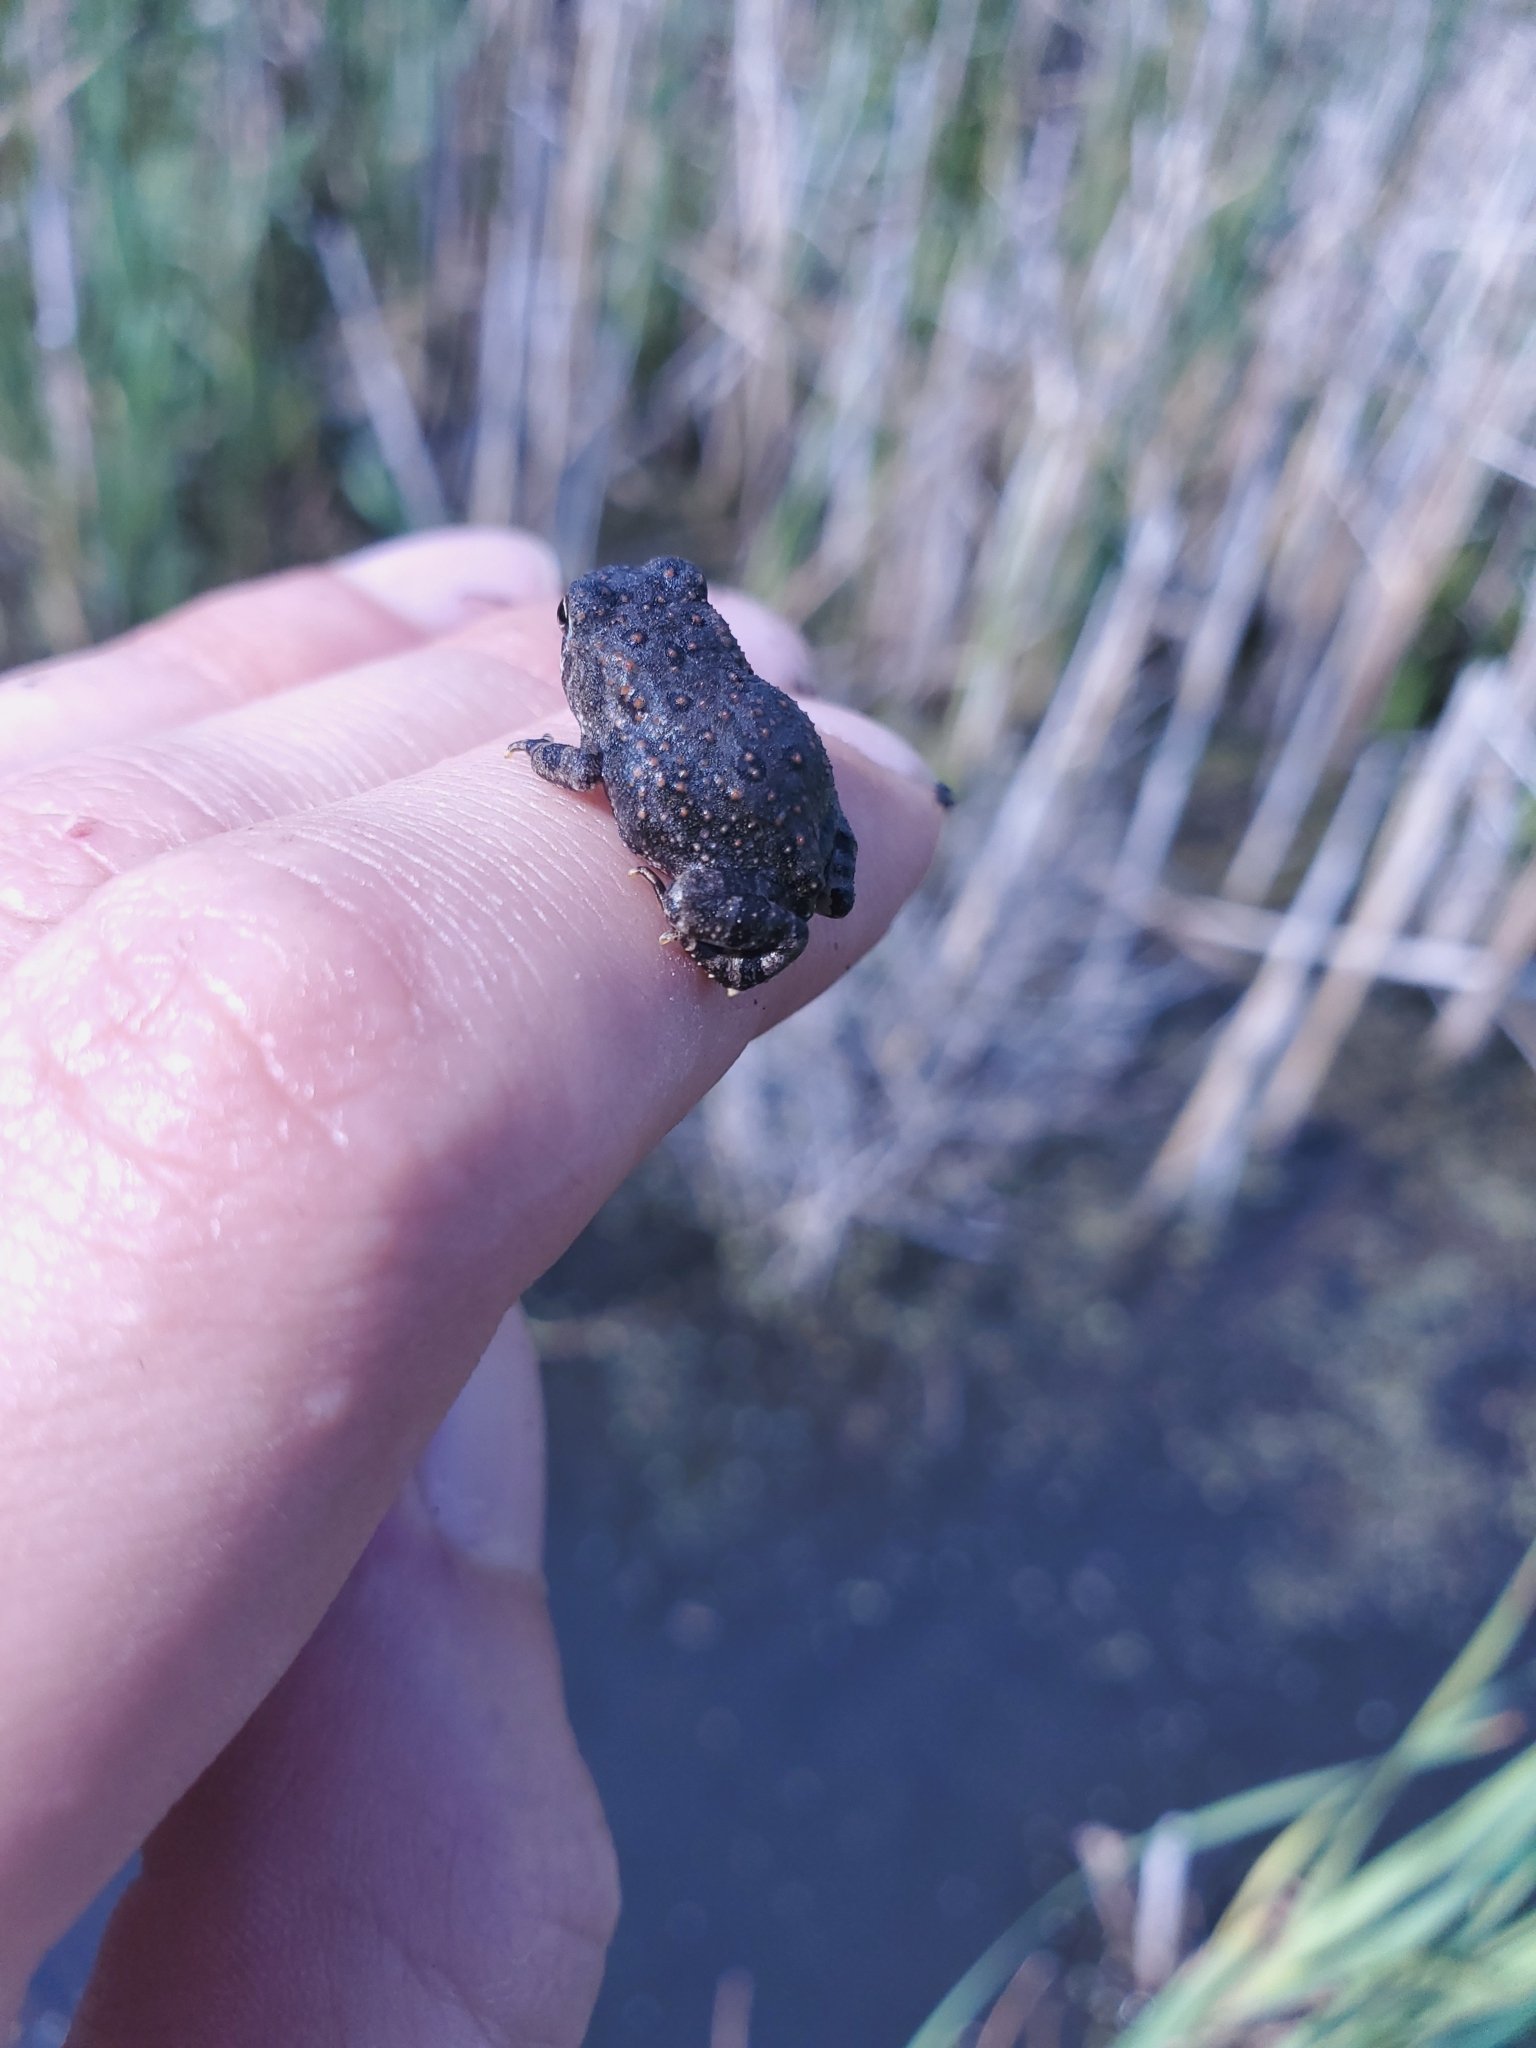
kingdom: Animalia
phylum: Chordata
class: Amphibia
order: Anura
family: Bufonidae
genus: Anaxyrus
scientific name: Anaxyrus woodhousii
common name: Woodhouse's toad
